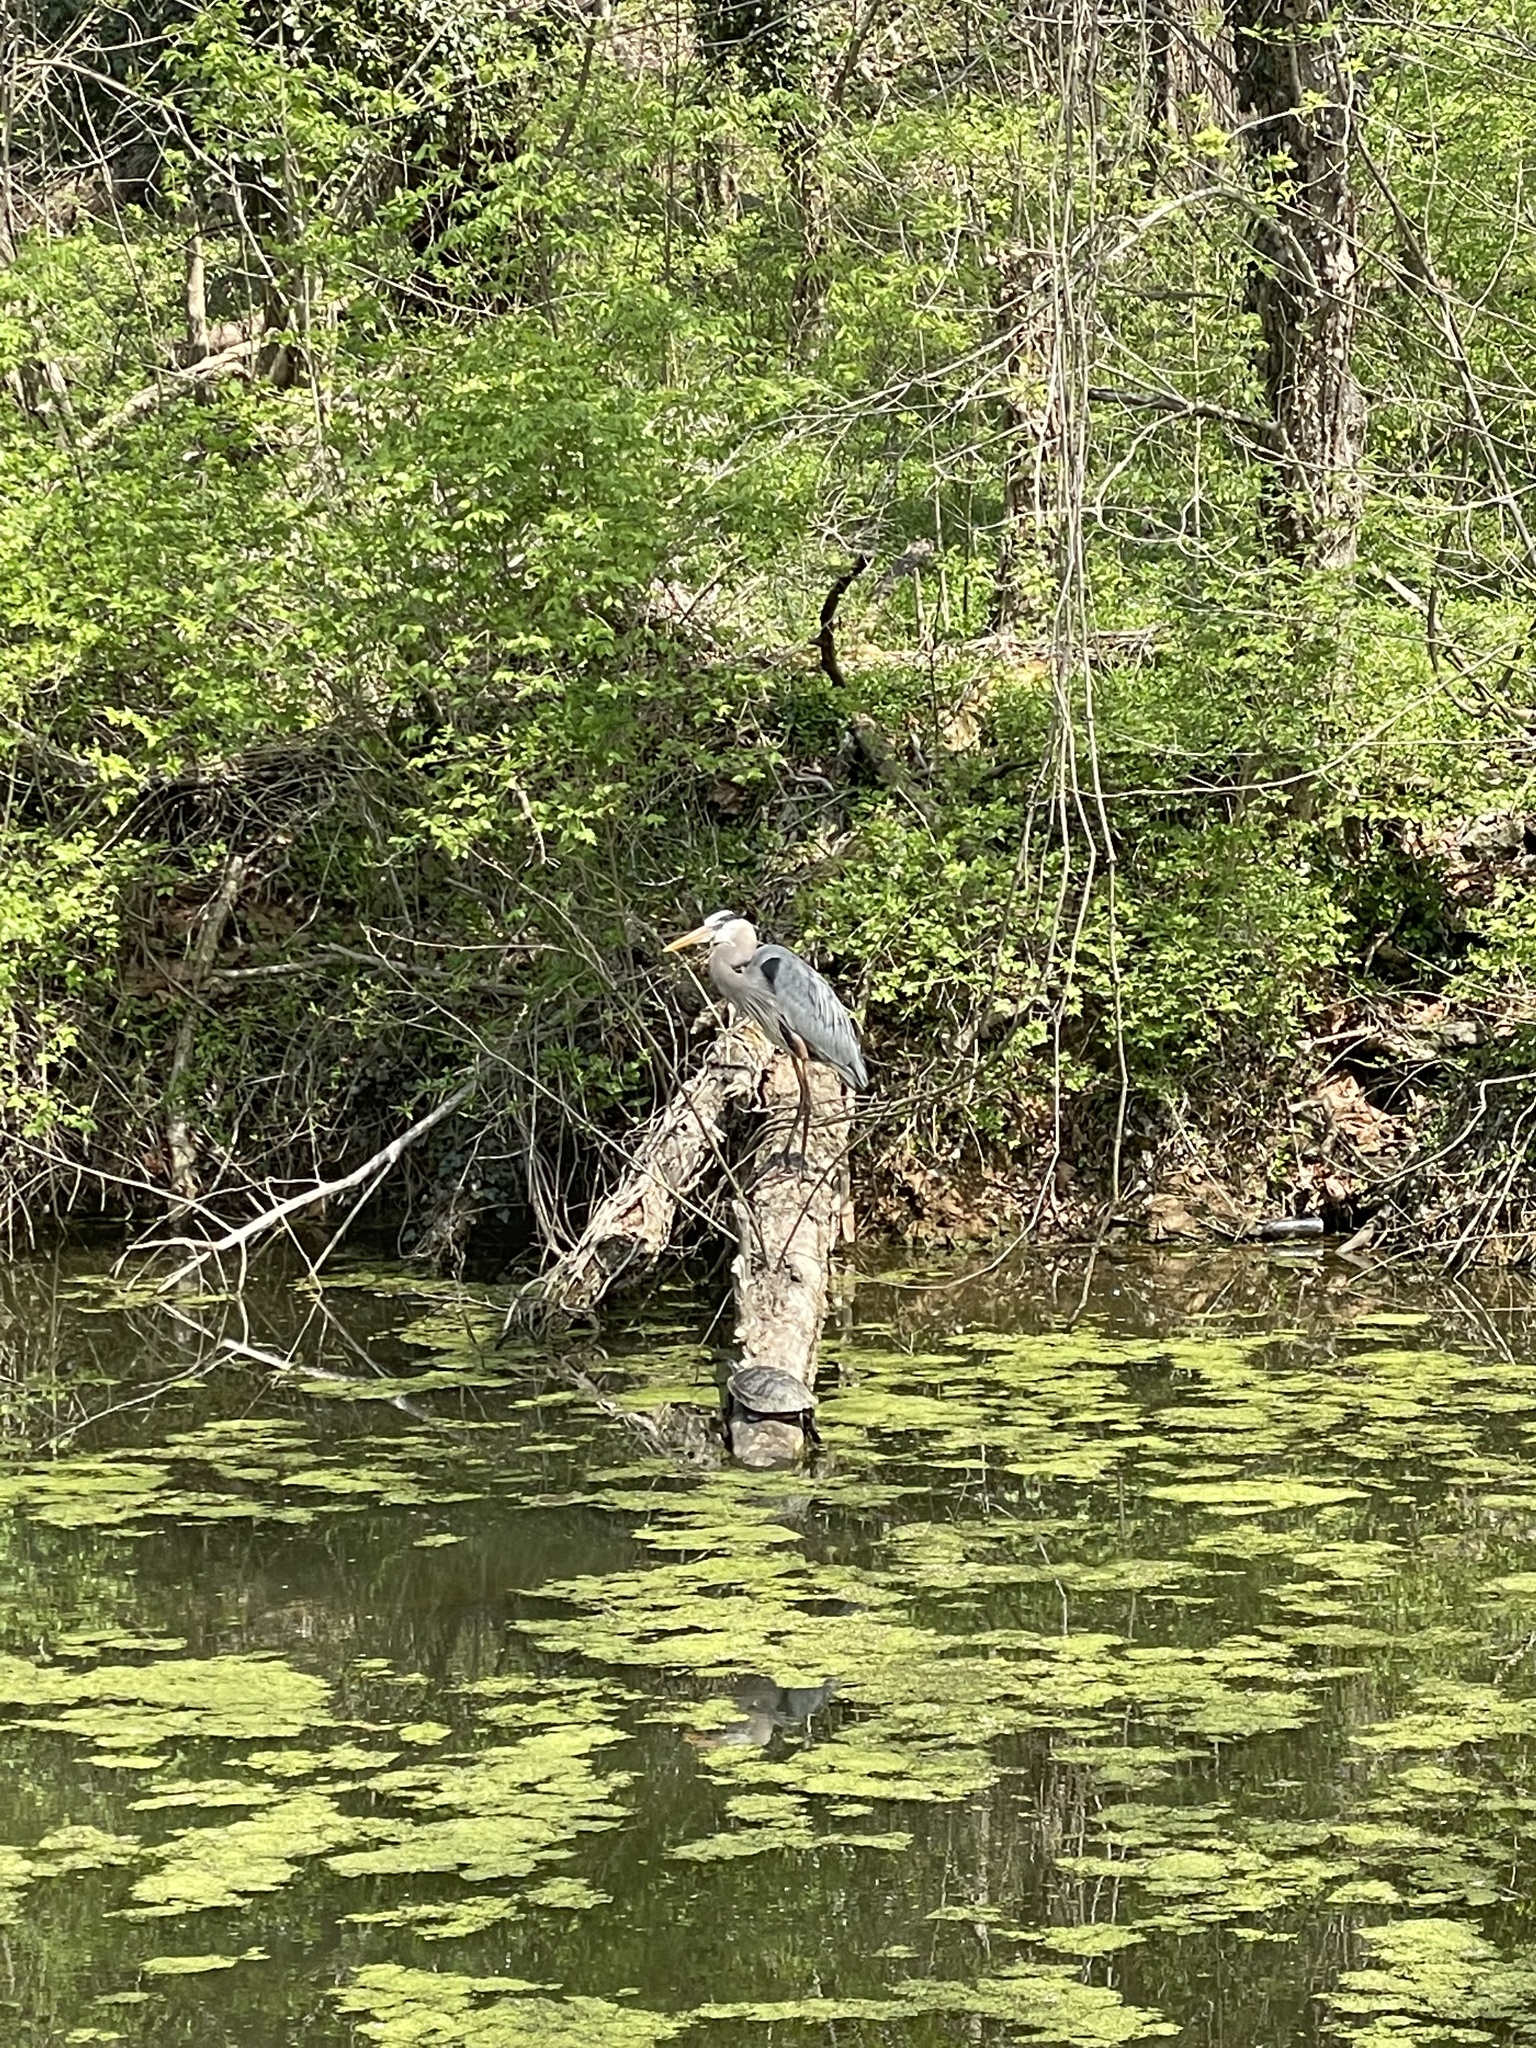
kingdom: Animalia
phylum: Chordata
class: Aves
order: Pelecaniformes
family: Ardeidae
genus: Ardea
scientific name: Ardea herodias
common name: Great blue heron
